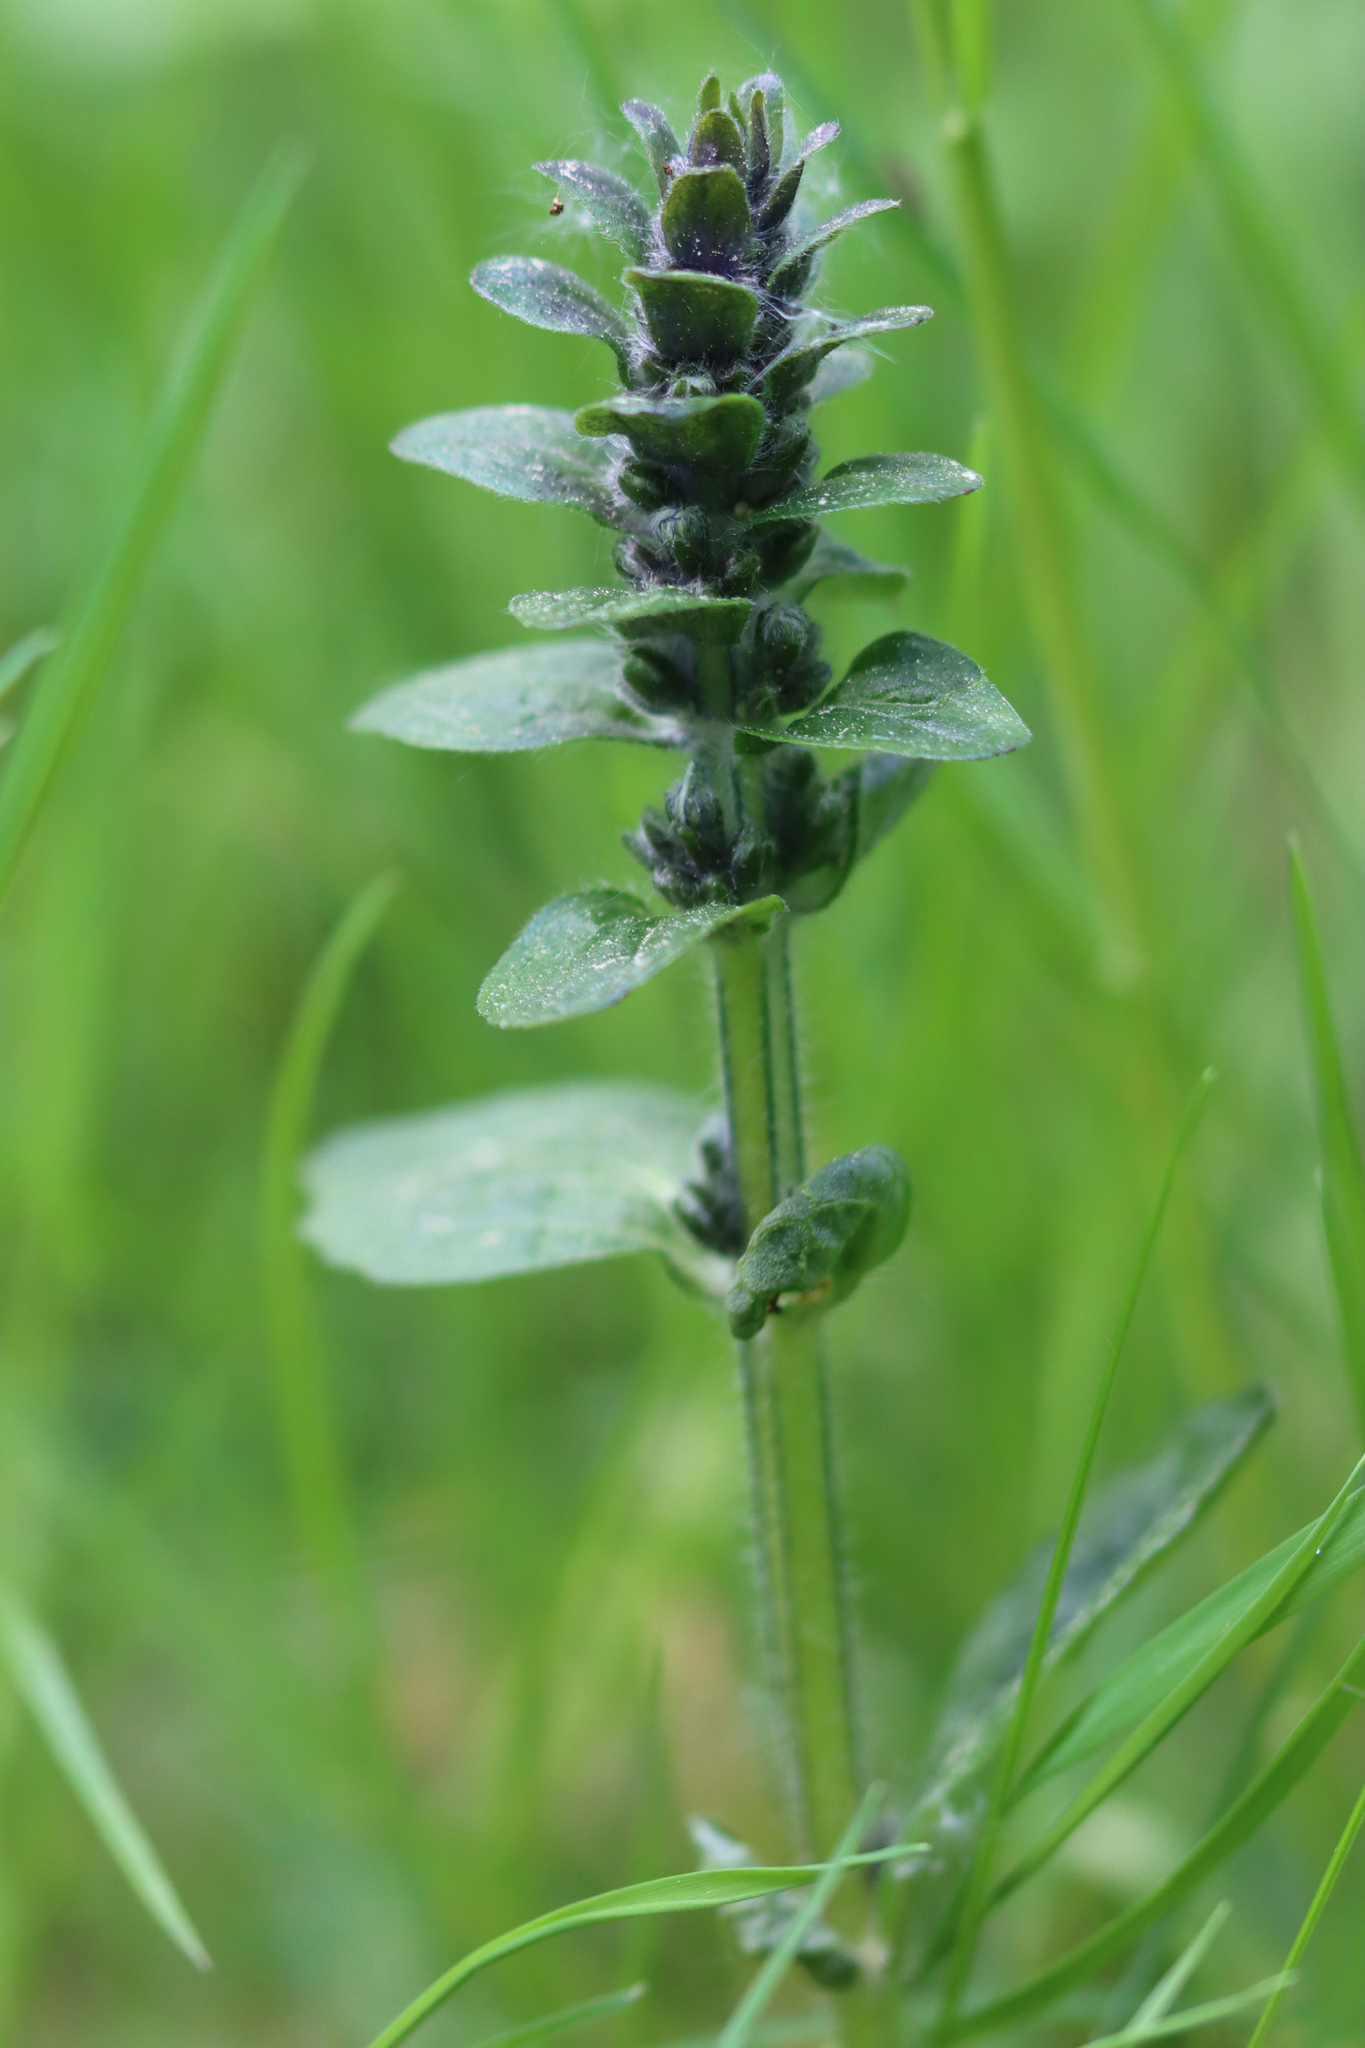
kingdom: Plantae
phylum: Tracheophyta
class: Magnoliopsida
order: Lamiales
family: Lamiaceae
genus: Ajuga
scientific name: Ajuga reptans
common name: Bugle
